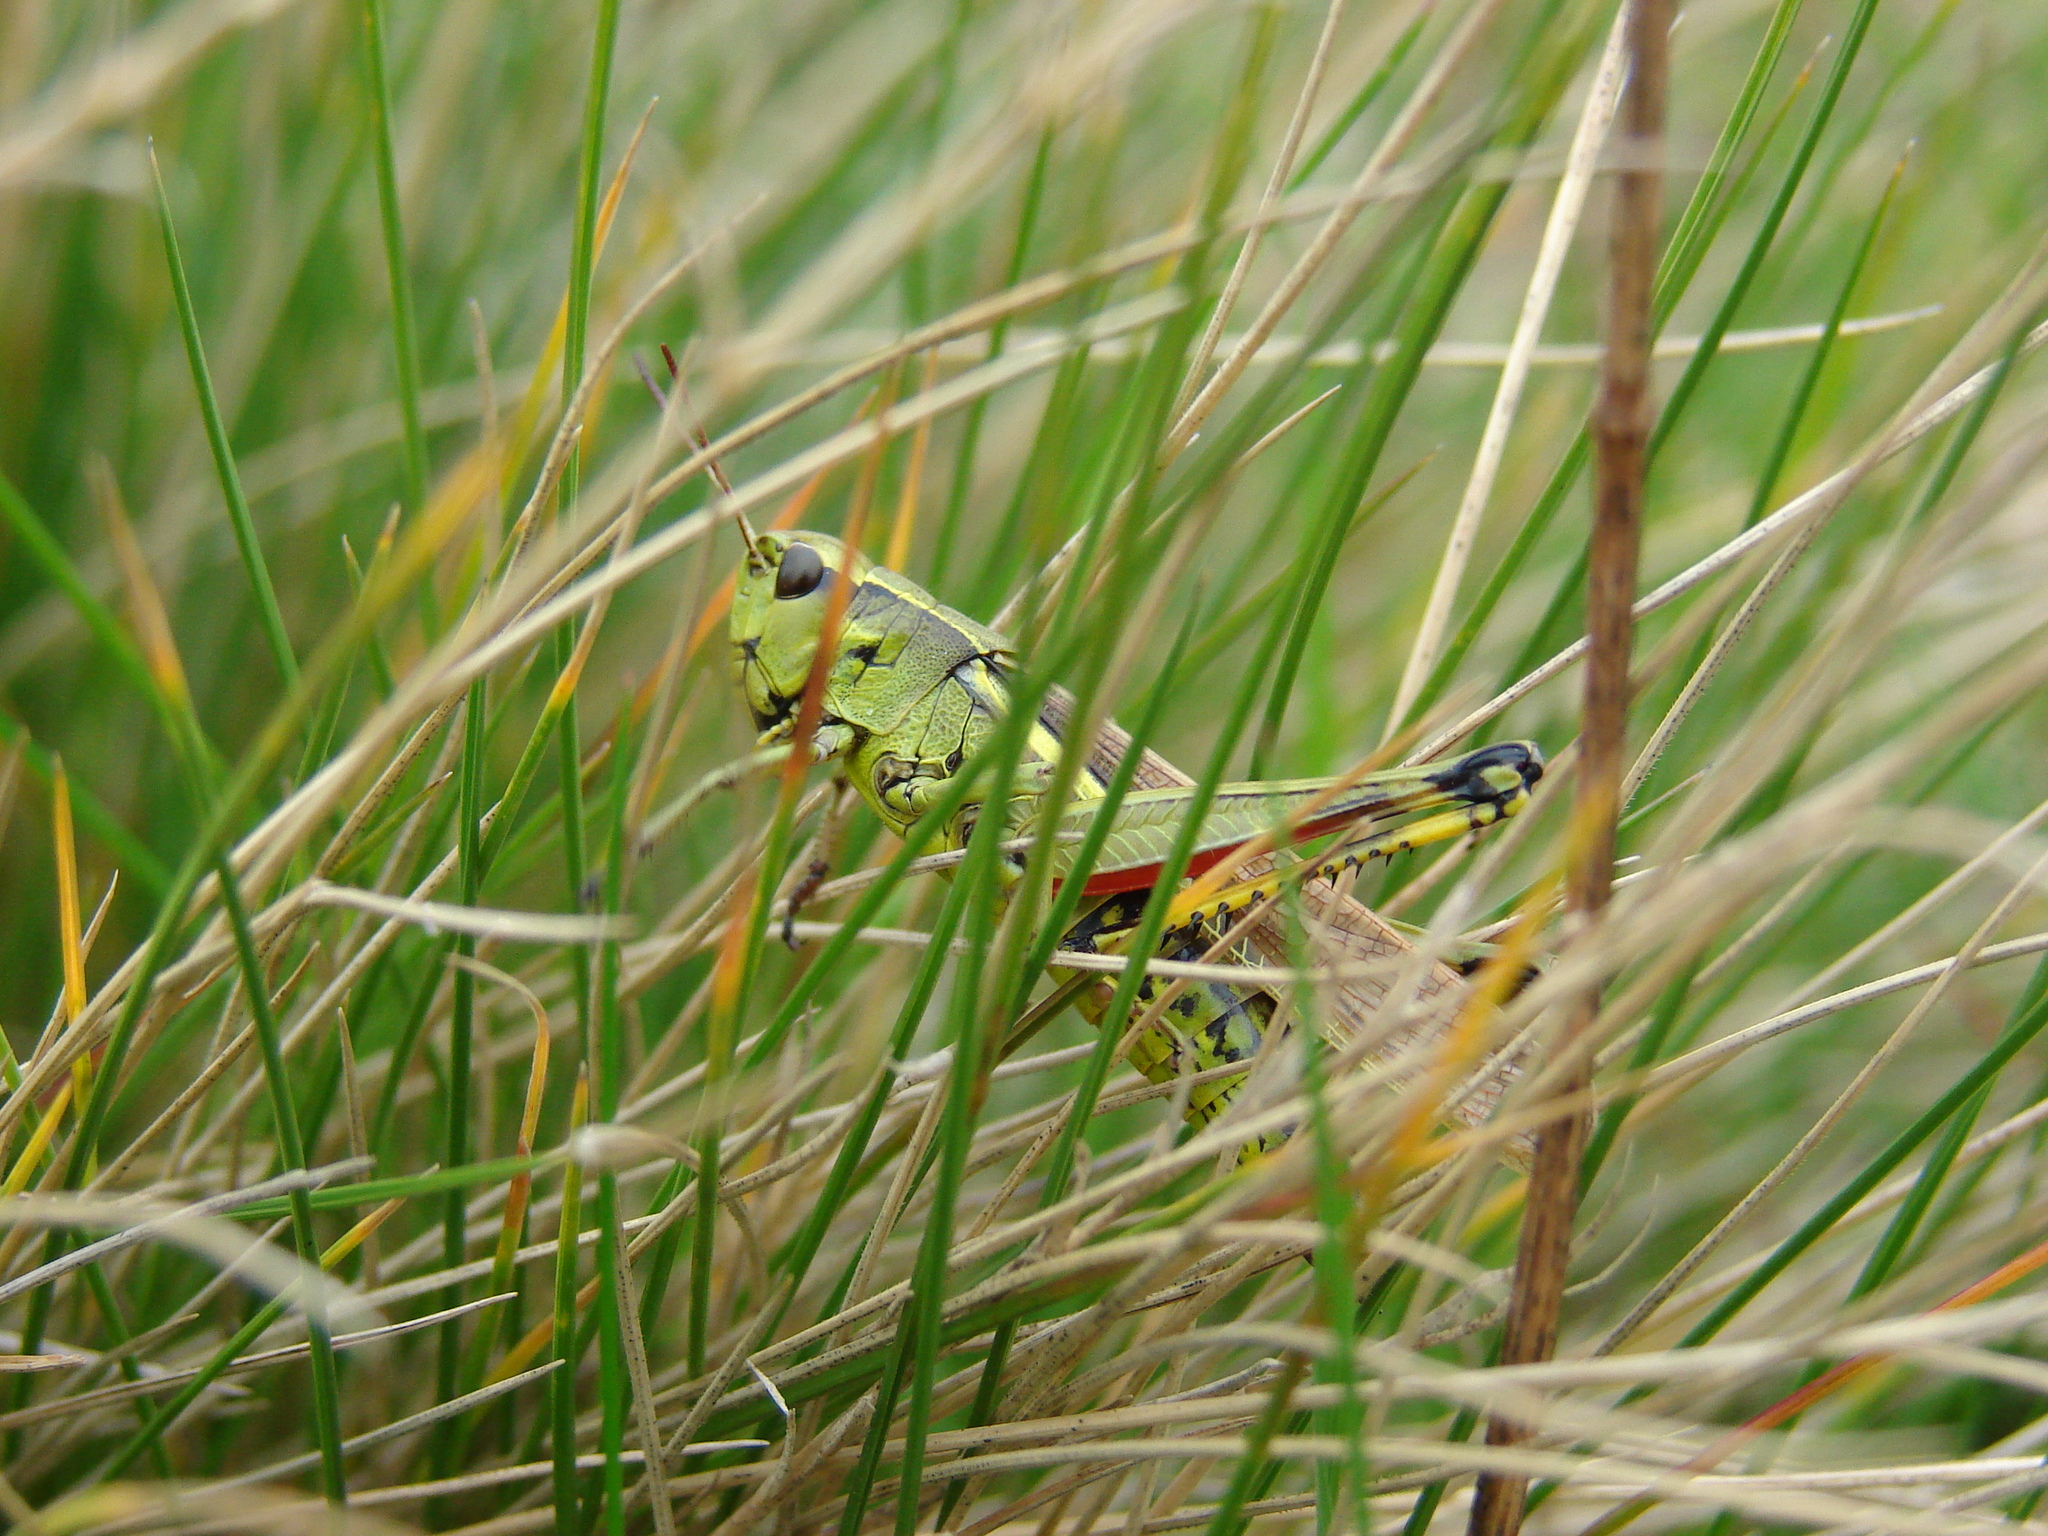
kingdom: Animalia
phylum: Arthropoda
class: Insecta
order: Orthoptera
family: Acrididae
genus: Stethophyma
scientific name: Stethophyma grossum
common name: Large marsh grasshopper
